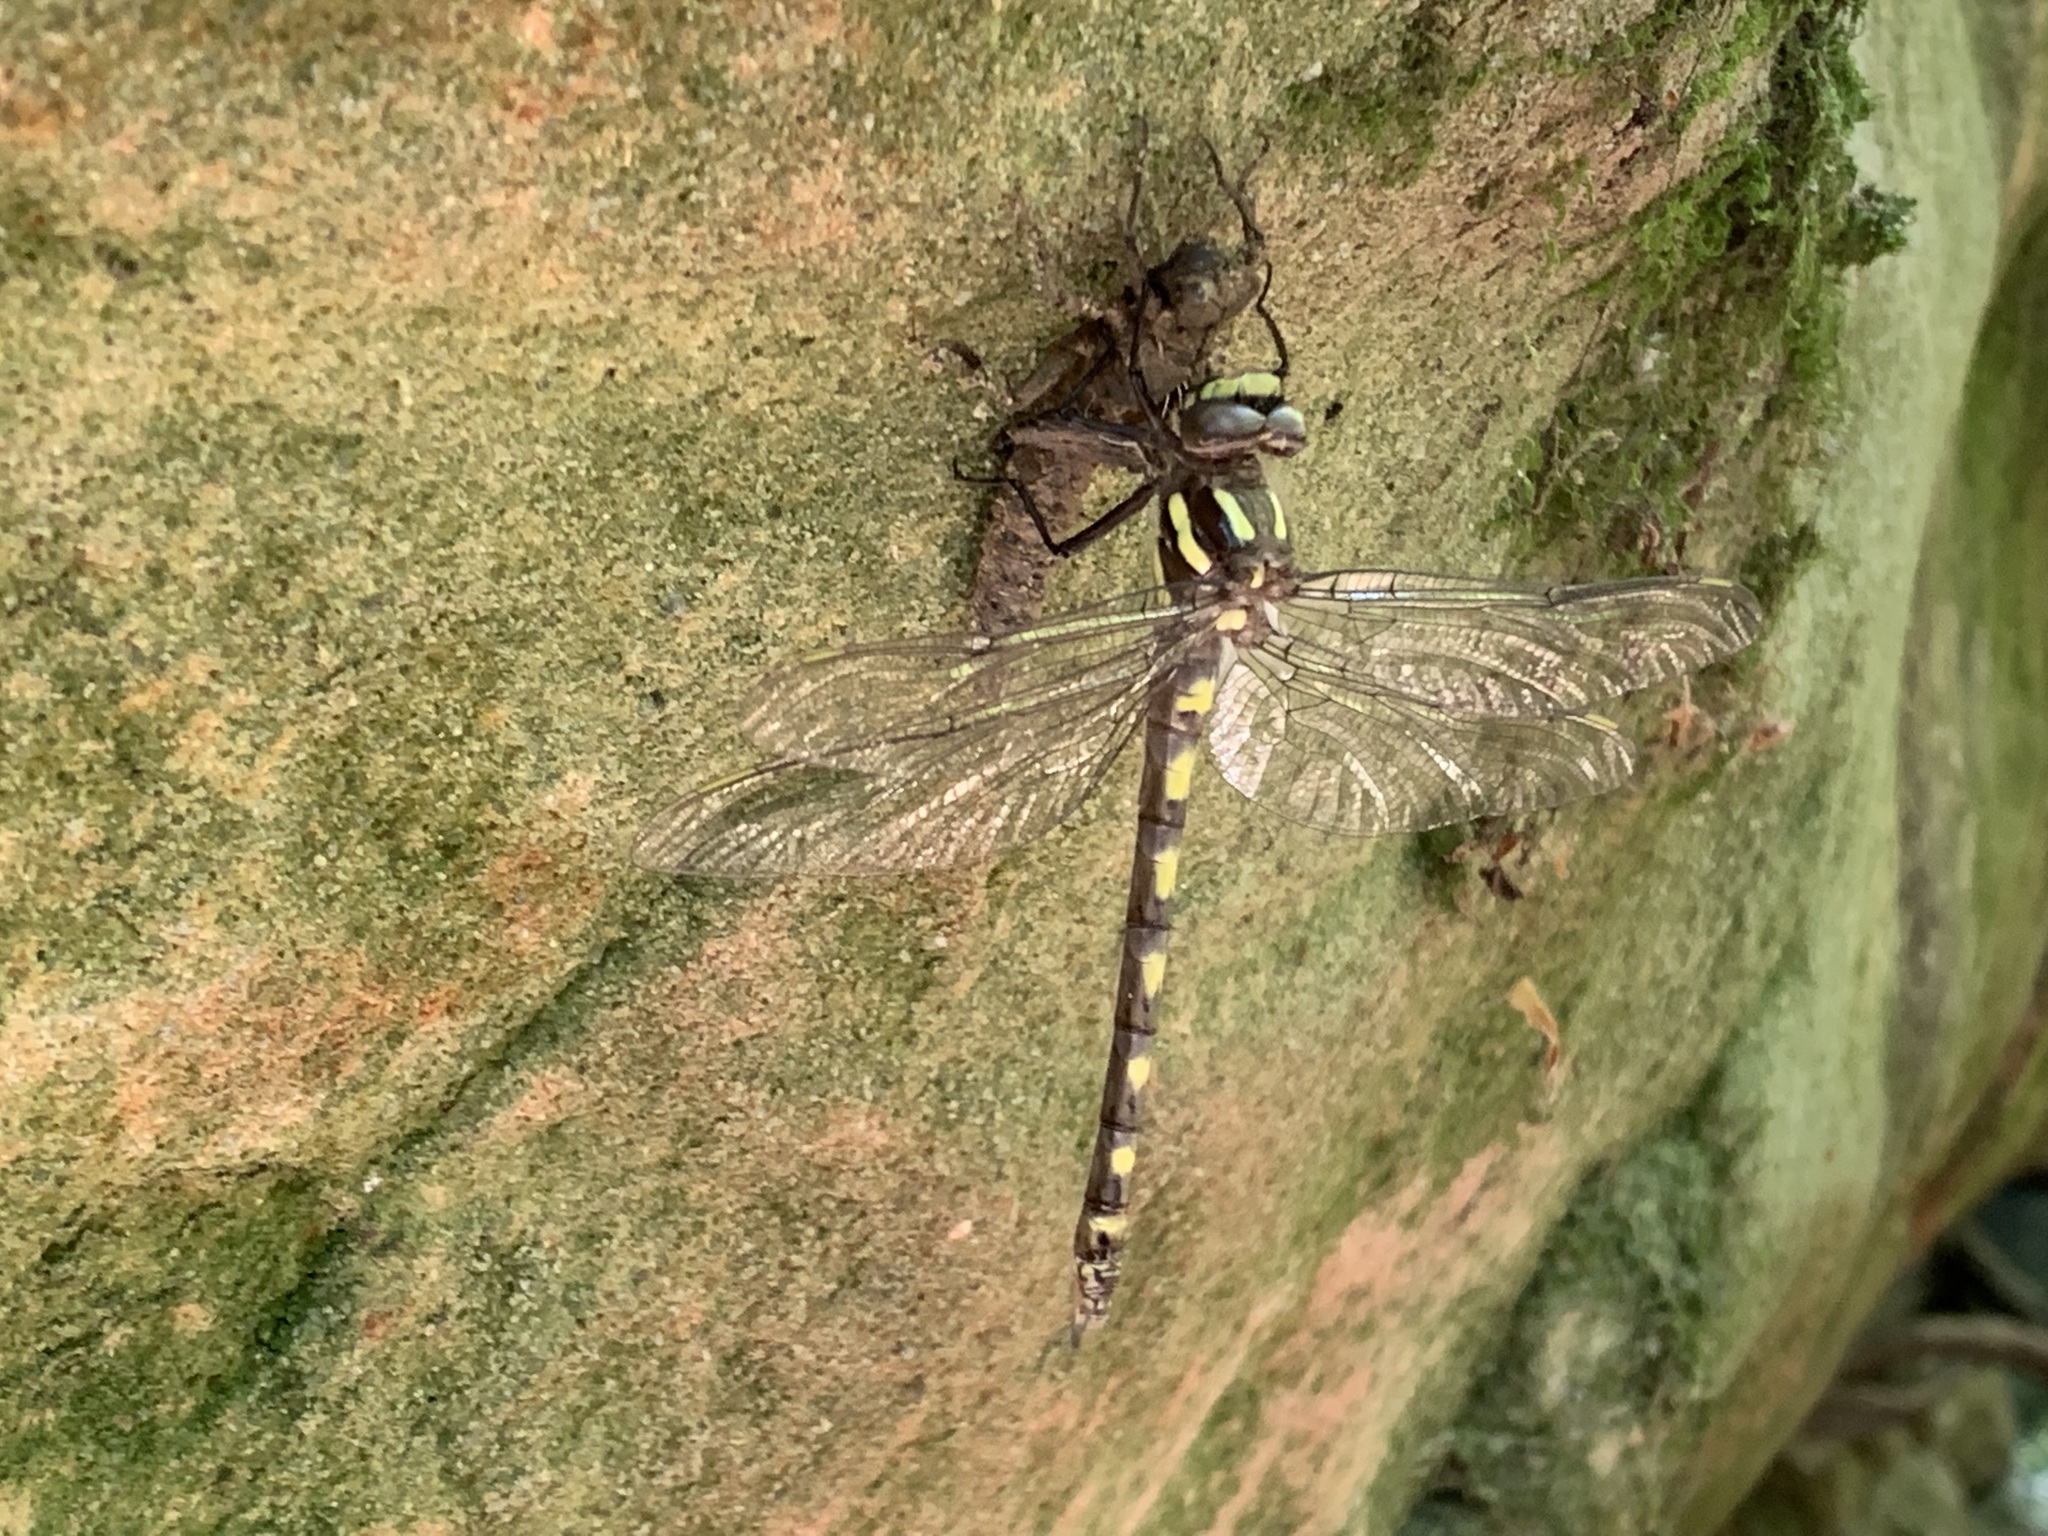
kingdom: Animalia
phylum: Arthropoda
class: Insecta
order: Odonata
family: Cordulegastridae
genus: Cordulegaster
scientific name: Cordulegaster dorsalis
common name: Pacific spiketail
